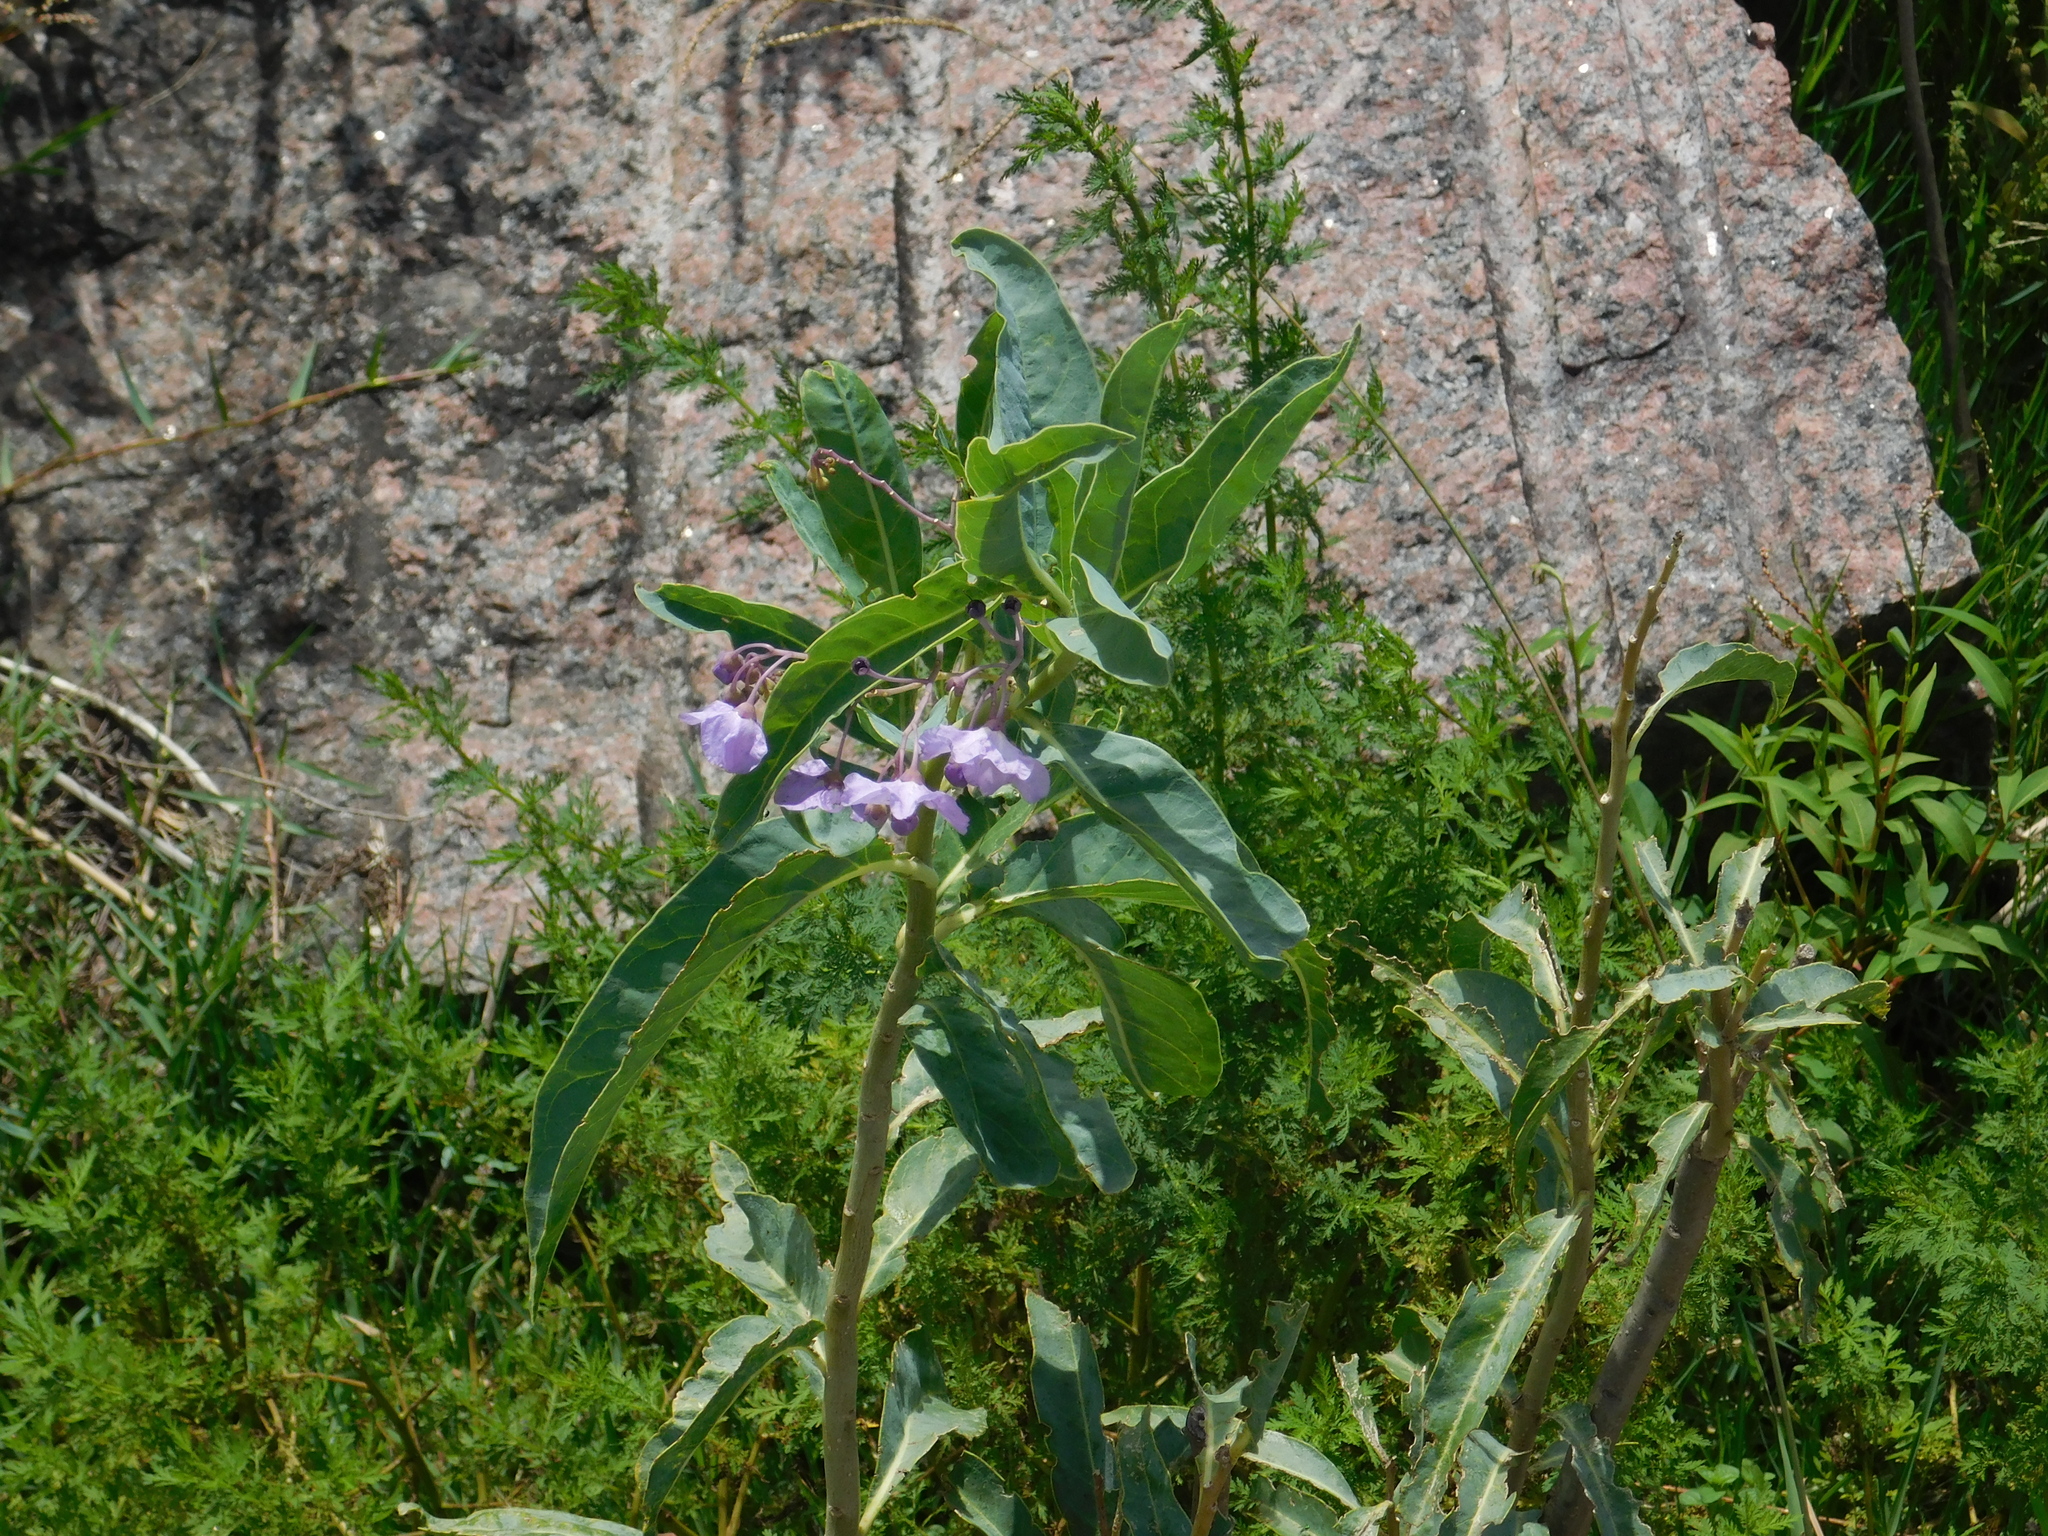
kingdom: Plantae
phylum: Tracheophyta
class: Magnoliopsida
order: Solanales
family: Solanaceae
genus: Solanum
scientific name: Solanum glaucophyllum
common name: Waxyleaf nightshade
